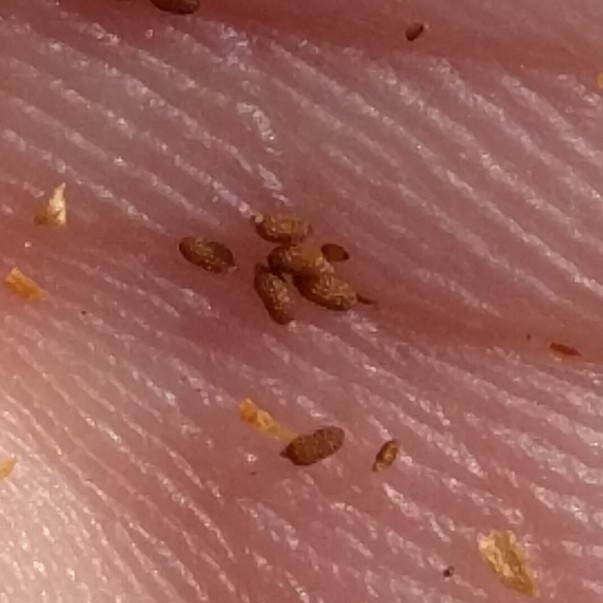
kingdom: Plantae
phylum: Tracheophyta
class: Magnoliopsida
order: Cucurbitales
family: Datiscaceae
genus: Datisca
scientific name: Datisca glomerata
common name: Durango-root
